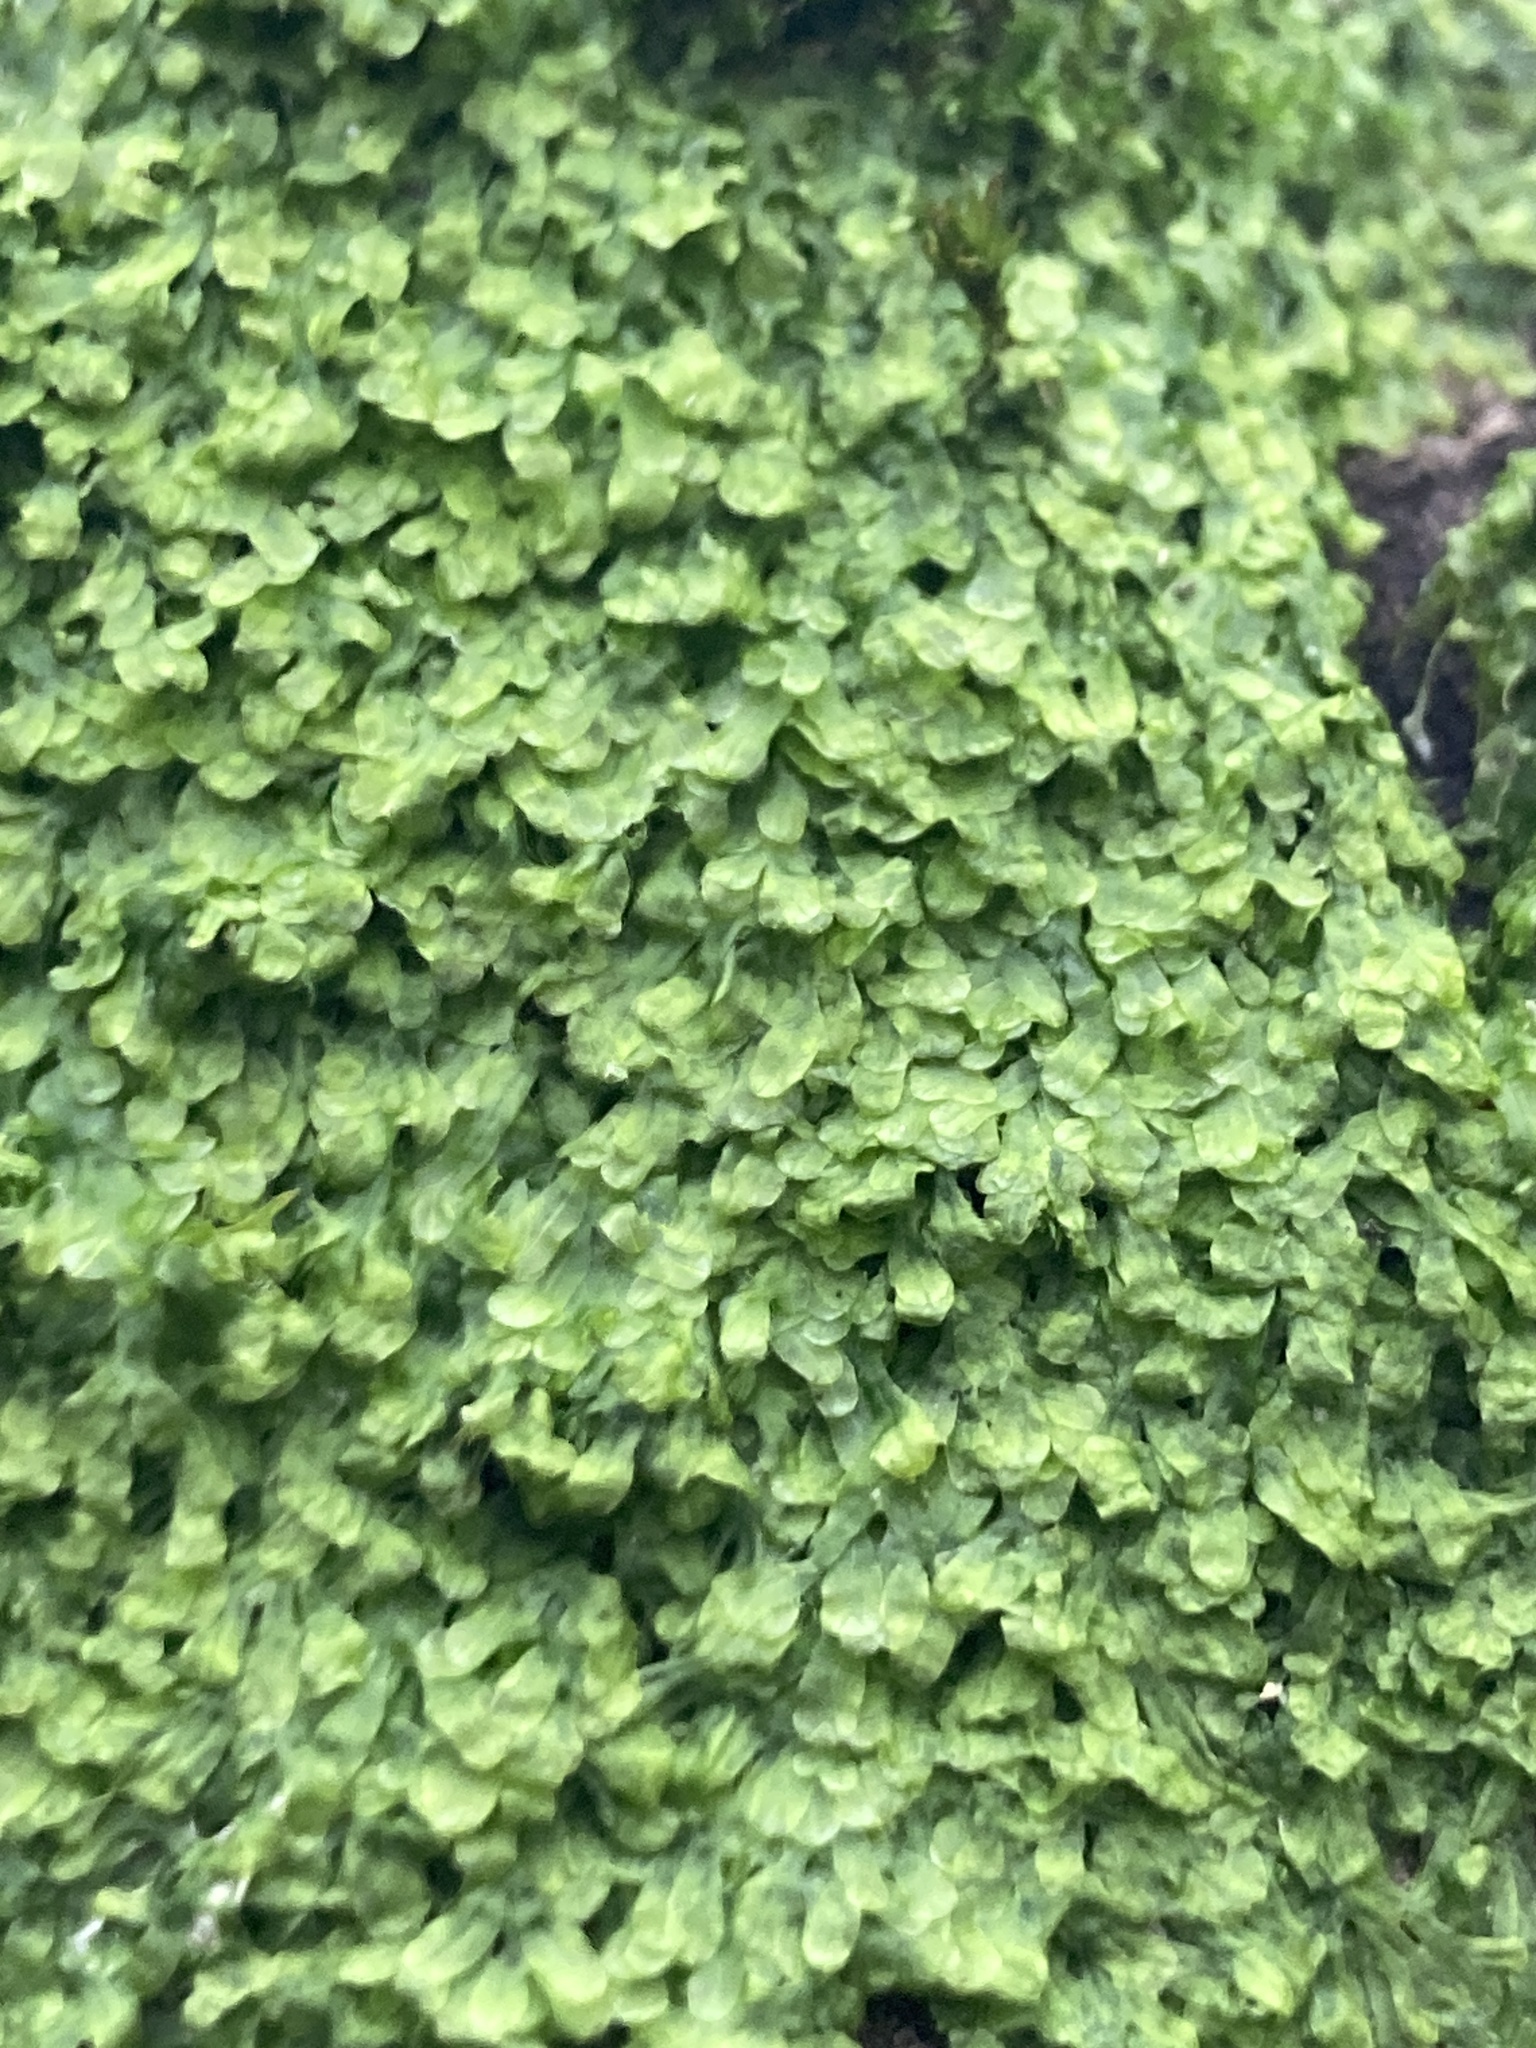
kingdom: Plantae
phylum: Marchantiophyta
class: Jungermanniopsida
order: Metzgeriales
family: Metzgeriaceae
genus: Metzgeria
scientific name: Metzgeria furcata
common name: Forked veilwort
